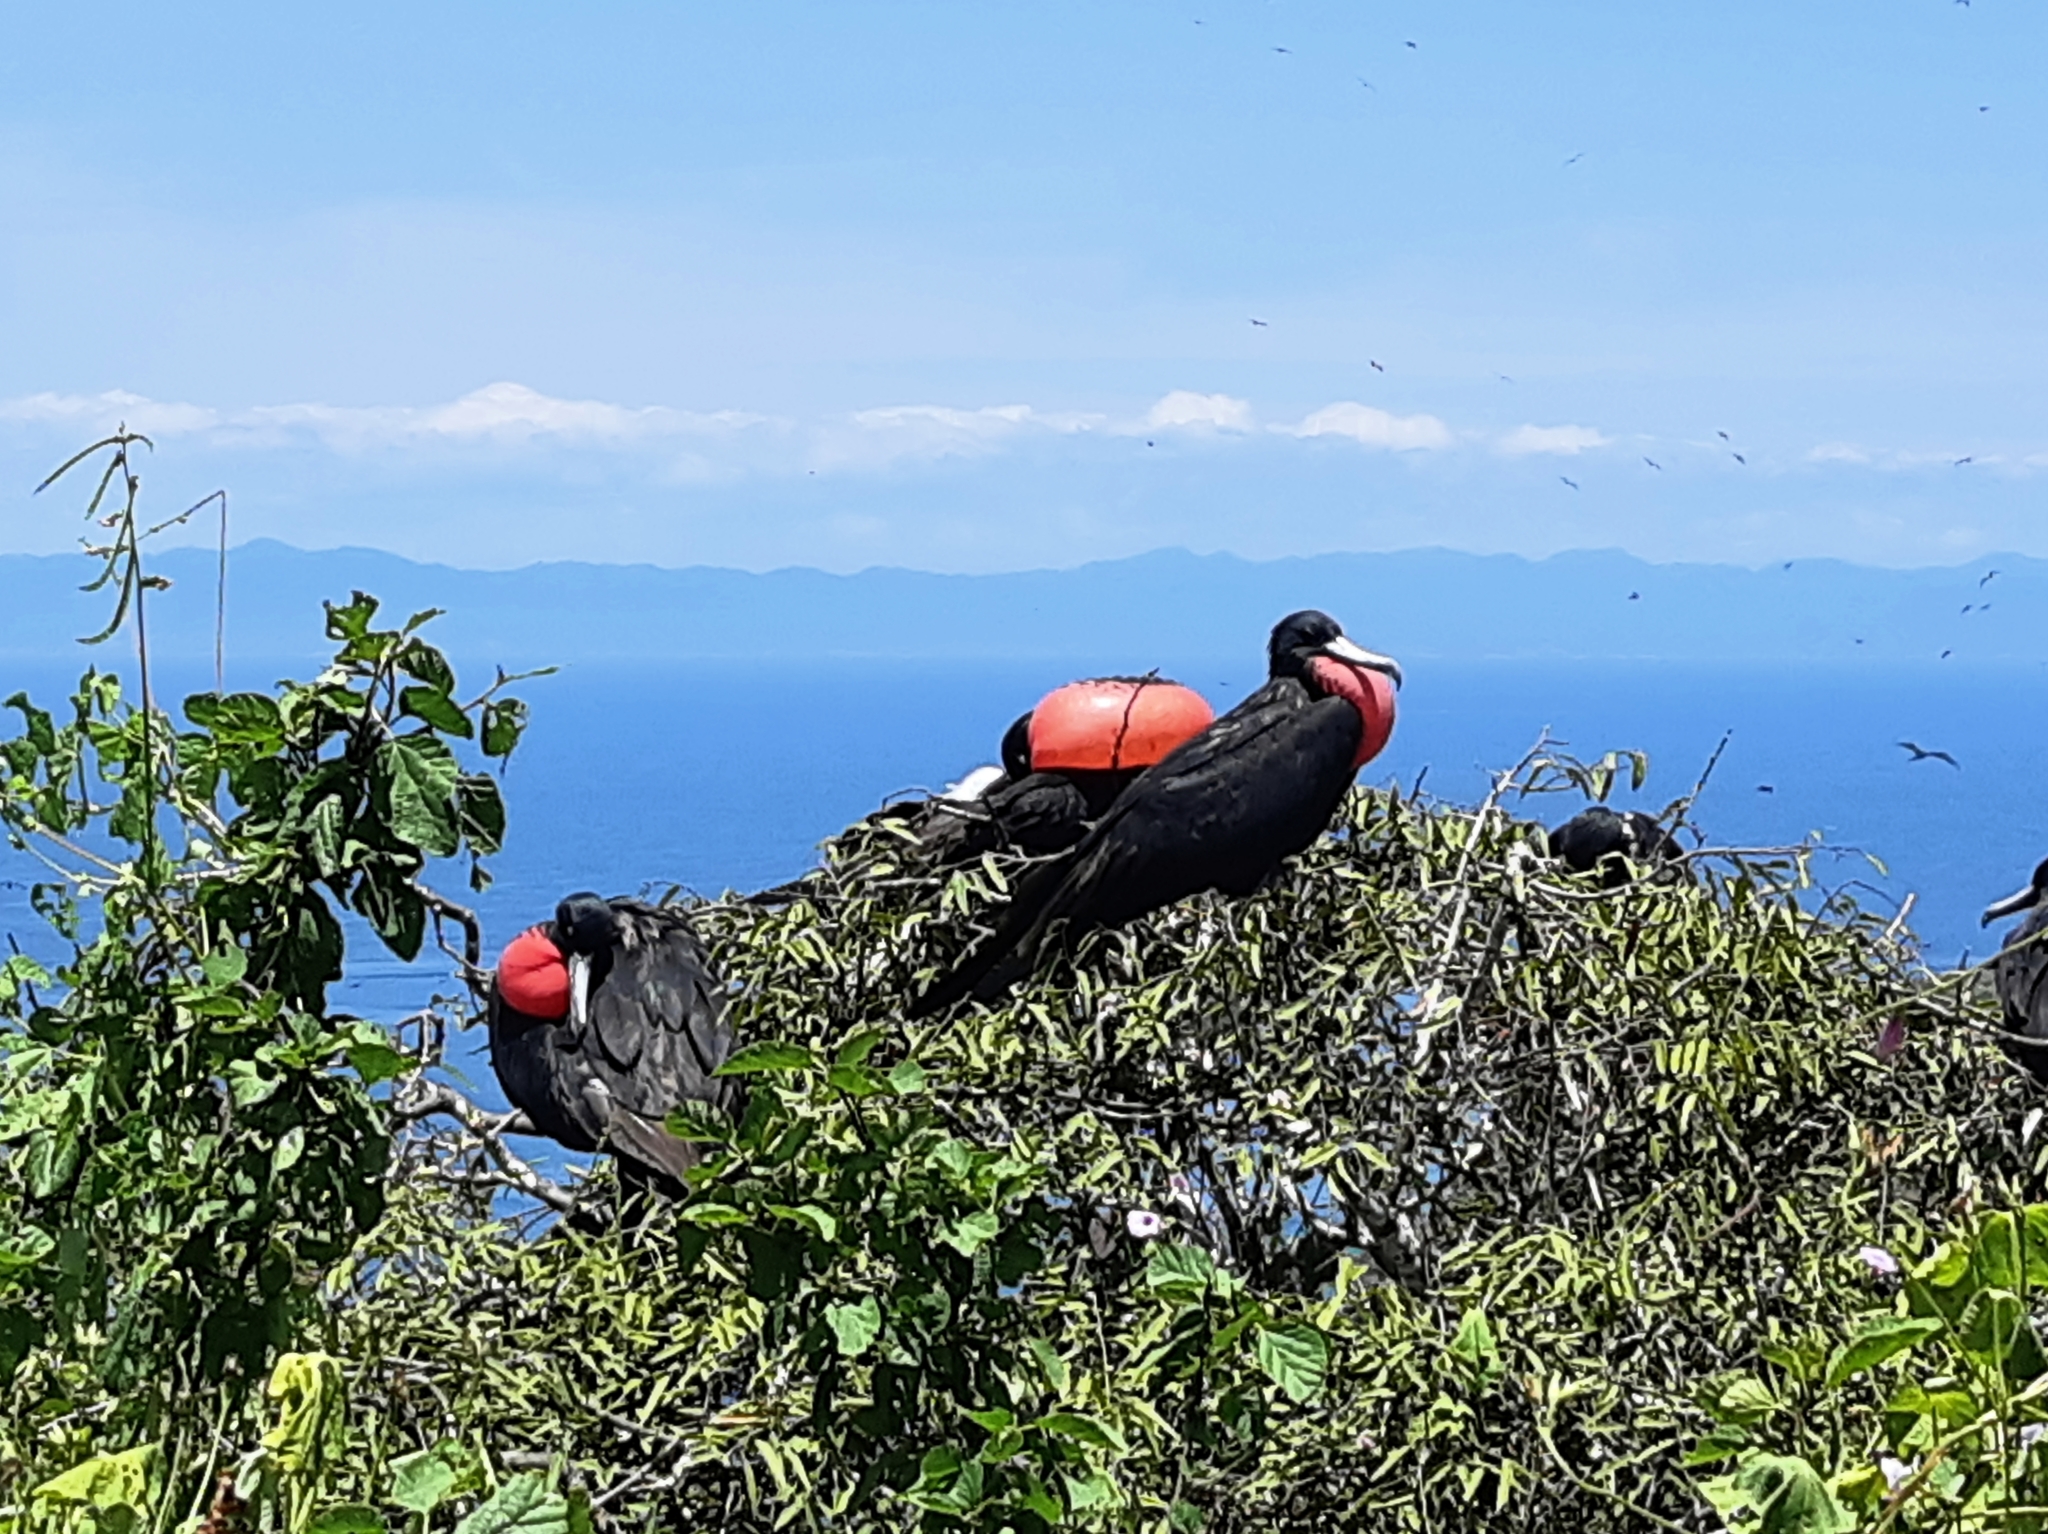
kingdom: Animalia
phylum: Chordata
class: Aves
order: Suliformes
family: Fregatidae
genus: Fregata
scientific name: Fregata magnificens
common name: Magnificent frigatebird
